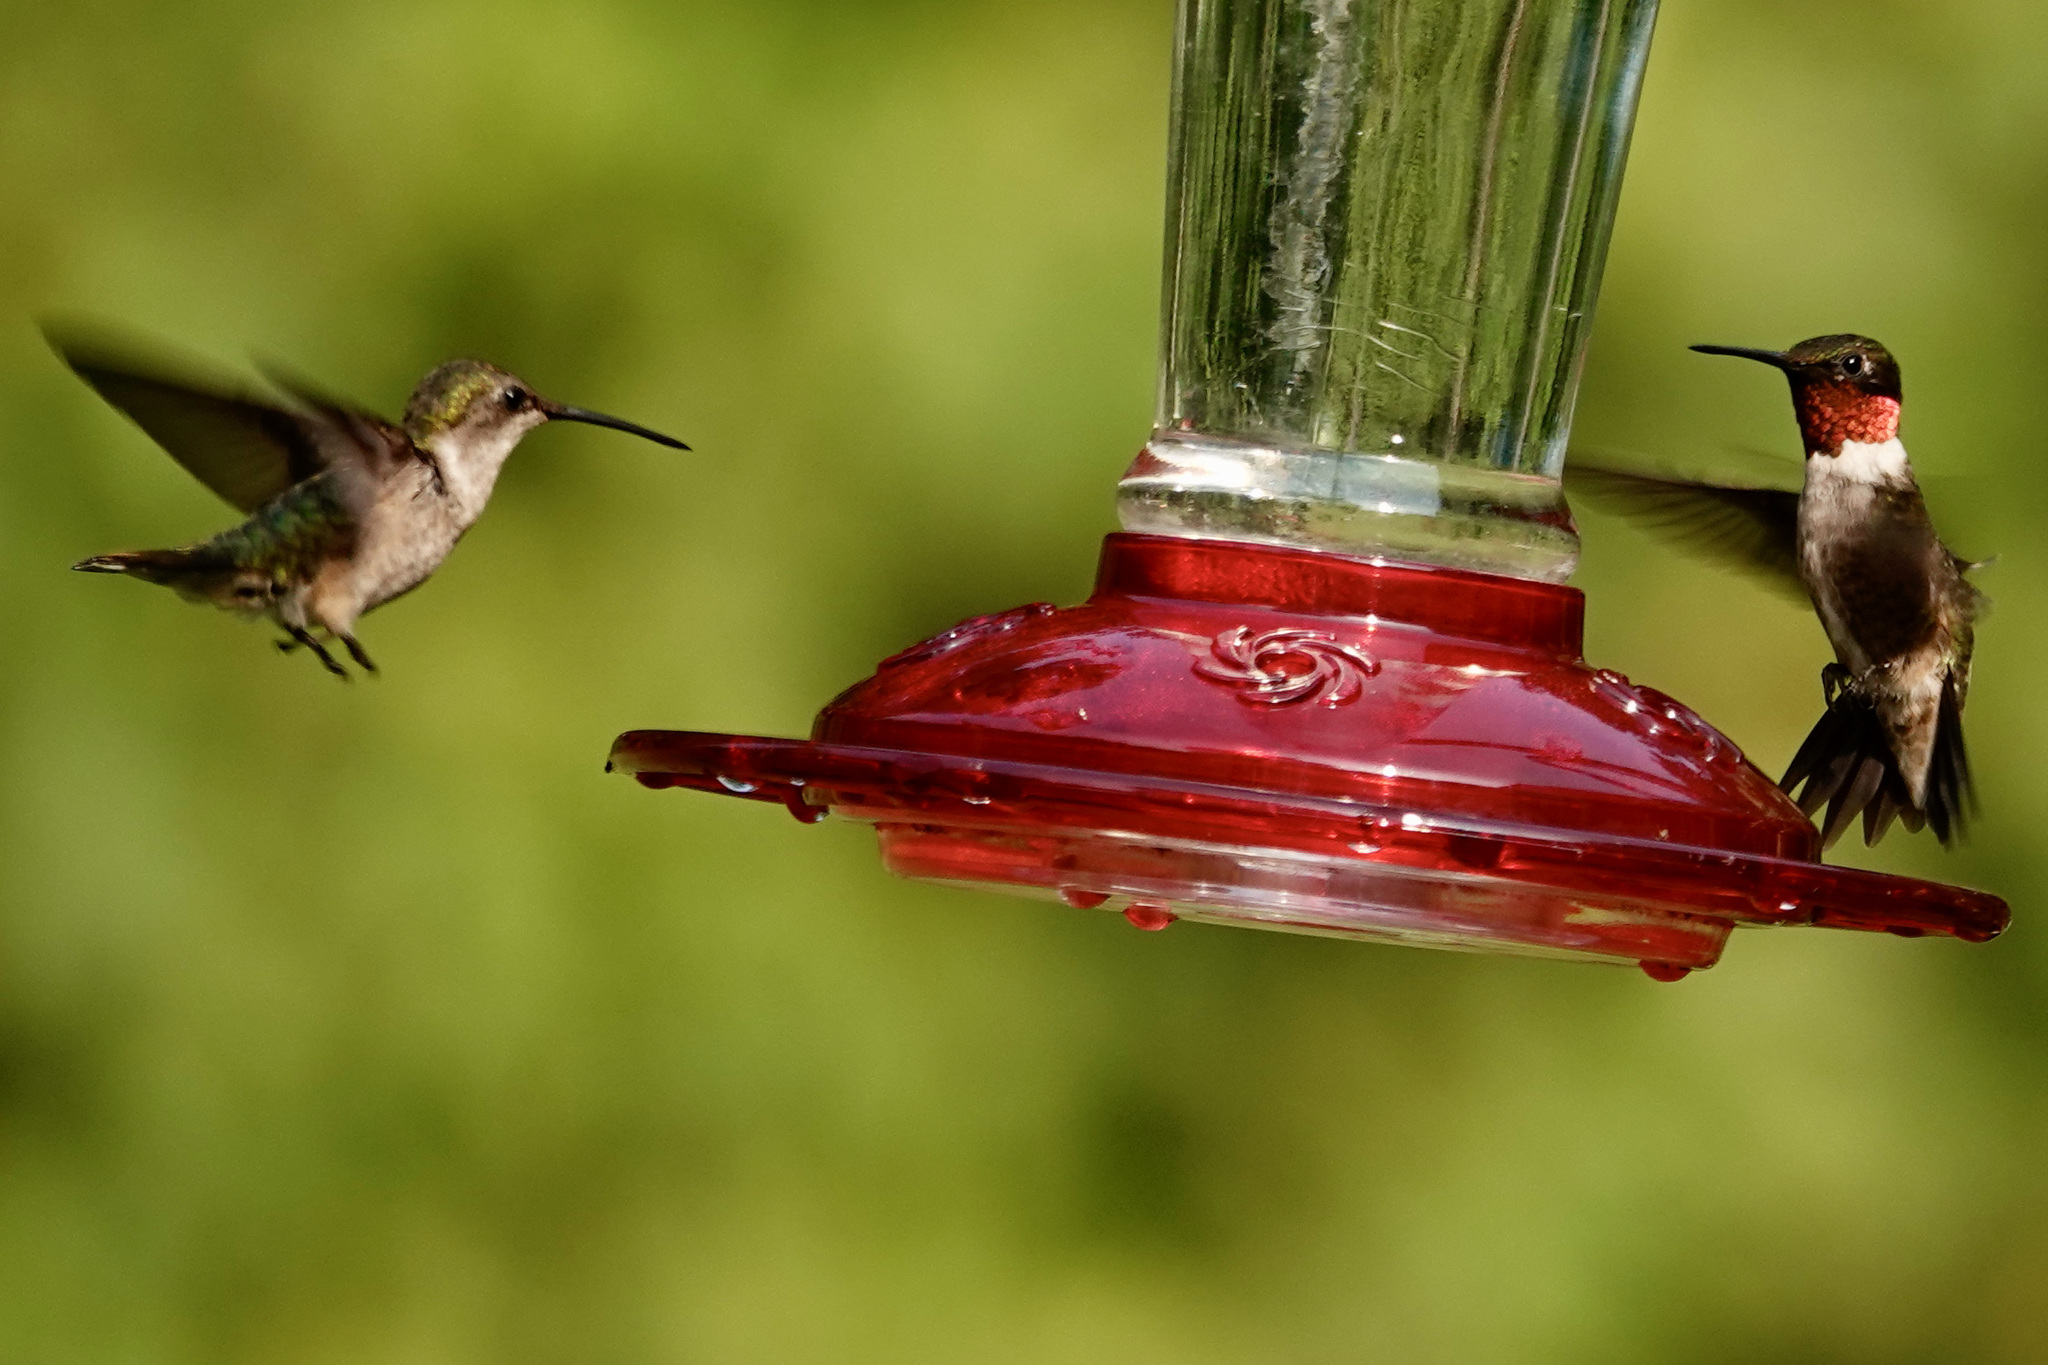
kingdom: Animalia
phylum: Chordata
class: Aves
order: Apodiformes
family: Trochilidae
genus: Archilochus
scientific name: Archilochus colubris
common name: Ruby-throated hummingbird
